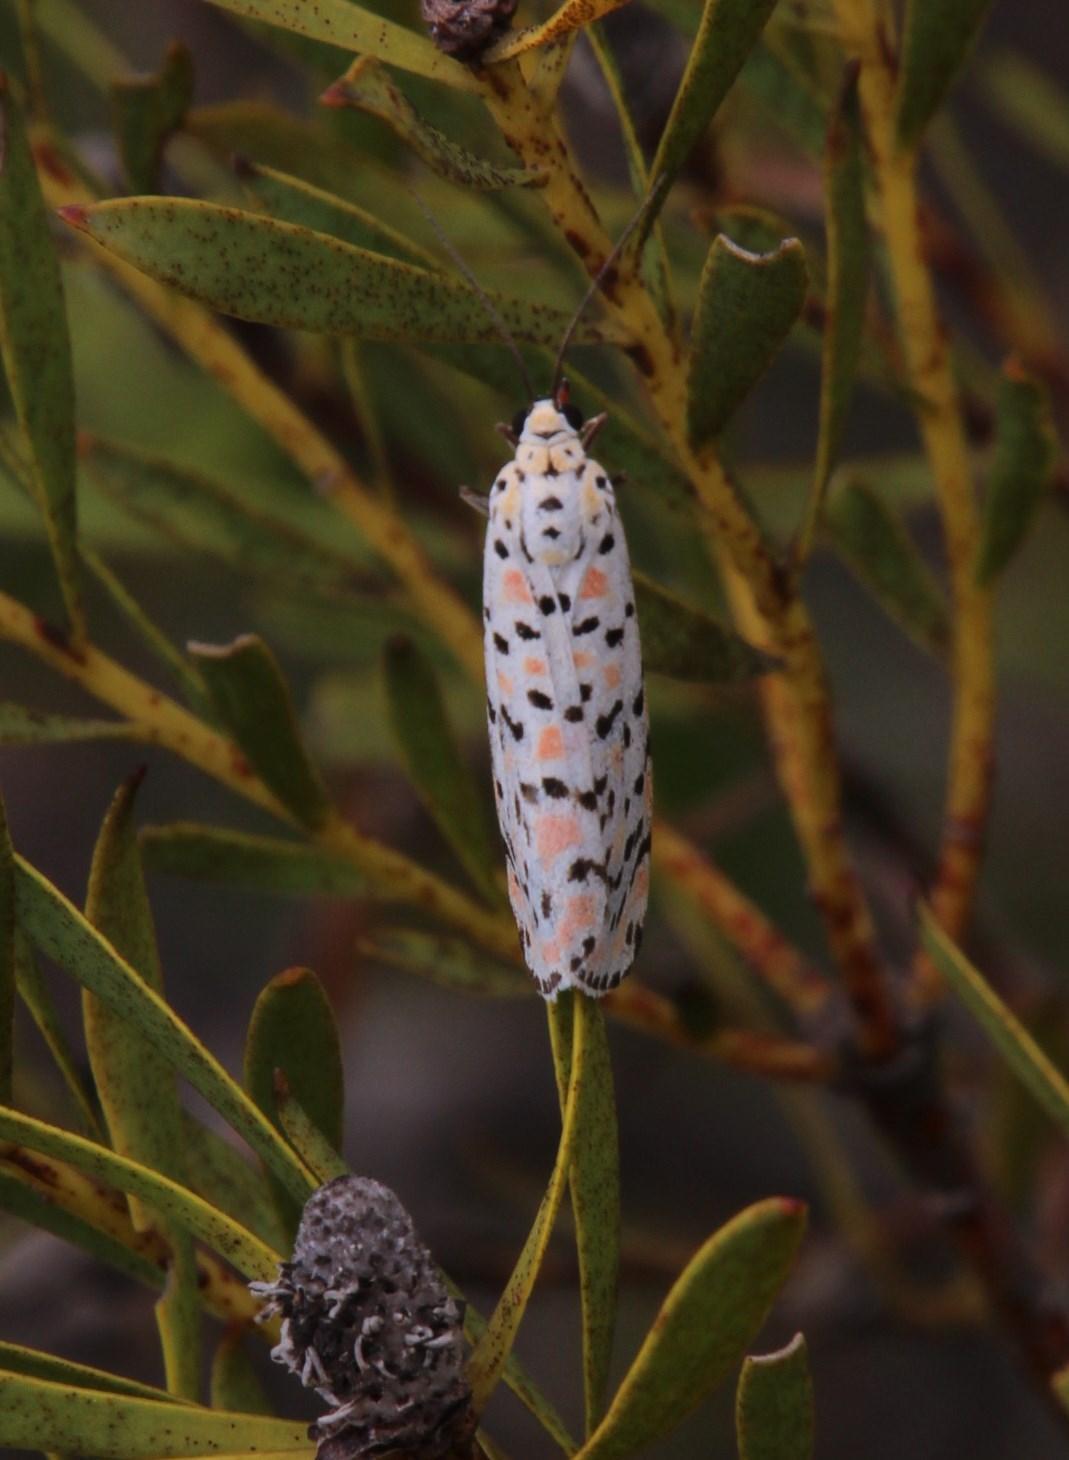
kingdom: Animalia
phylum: Arthropoda
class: Insecta
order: Lepidoptera
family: Erebidae
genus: Utetheisa
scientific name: Utetheisa pulchella
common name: Crimson speckled
